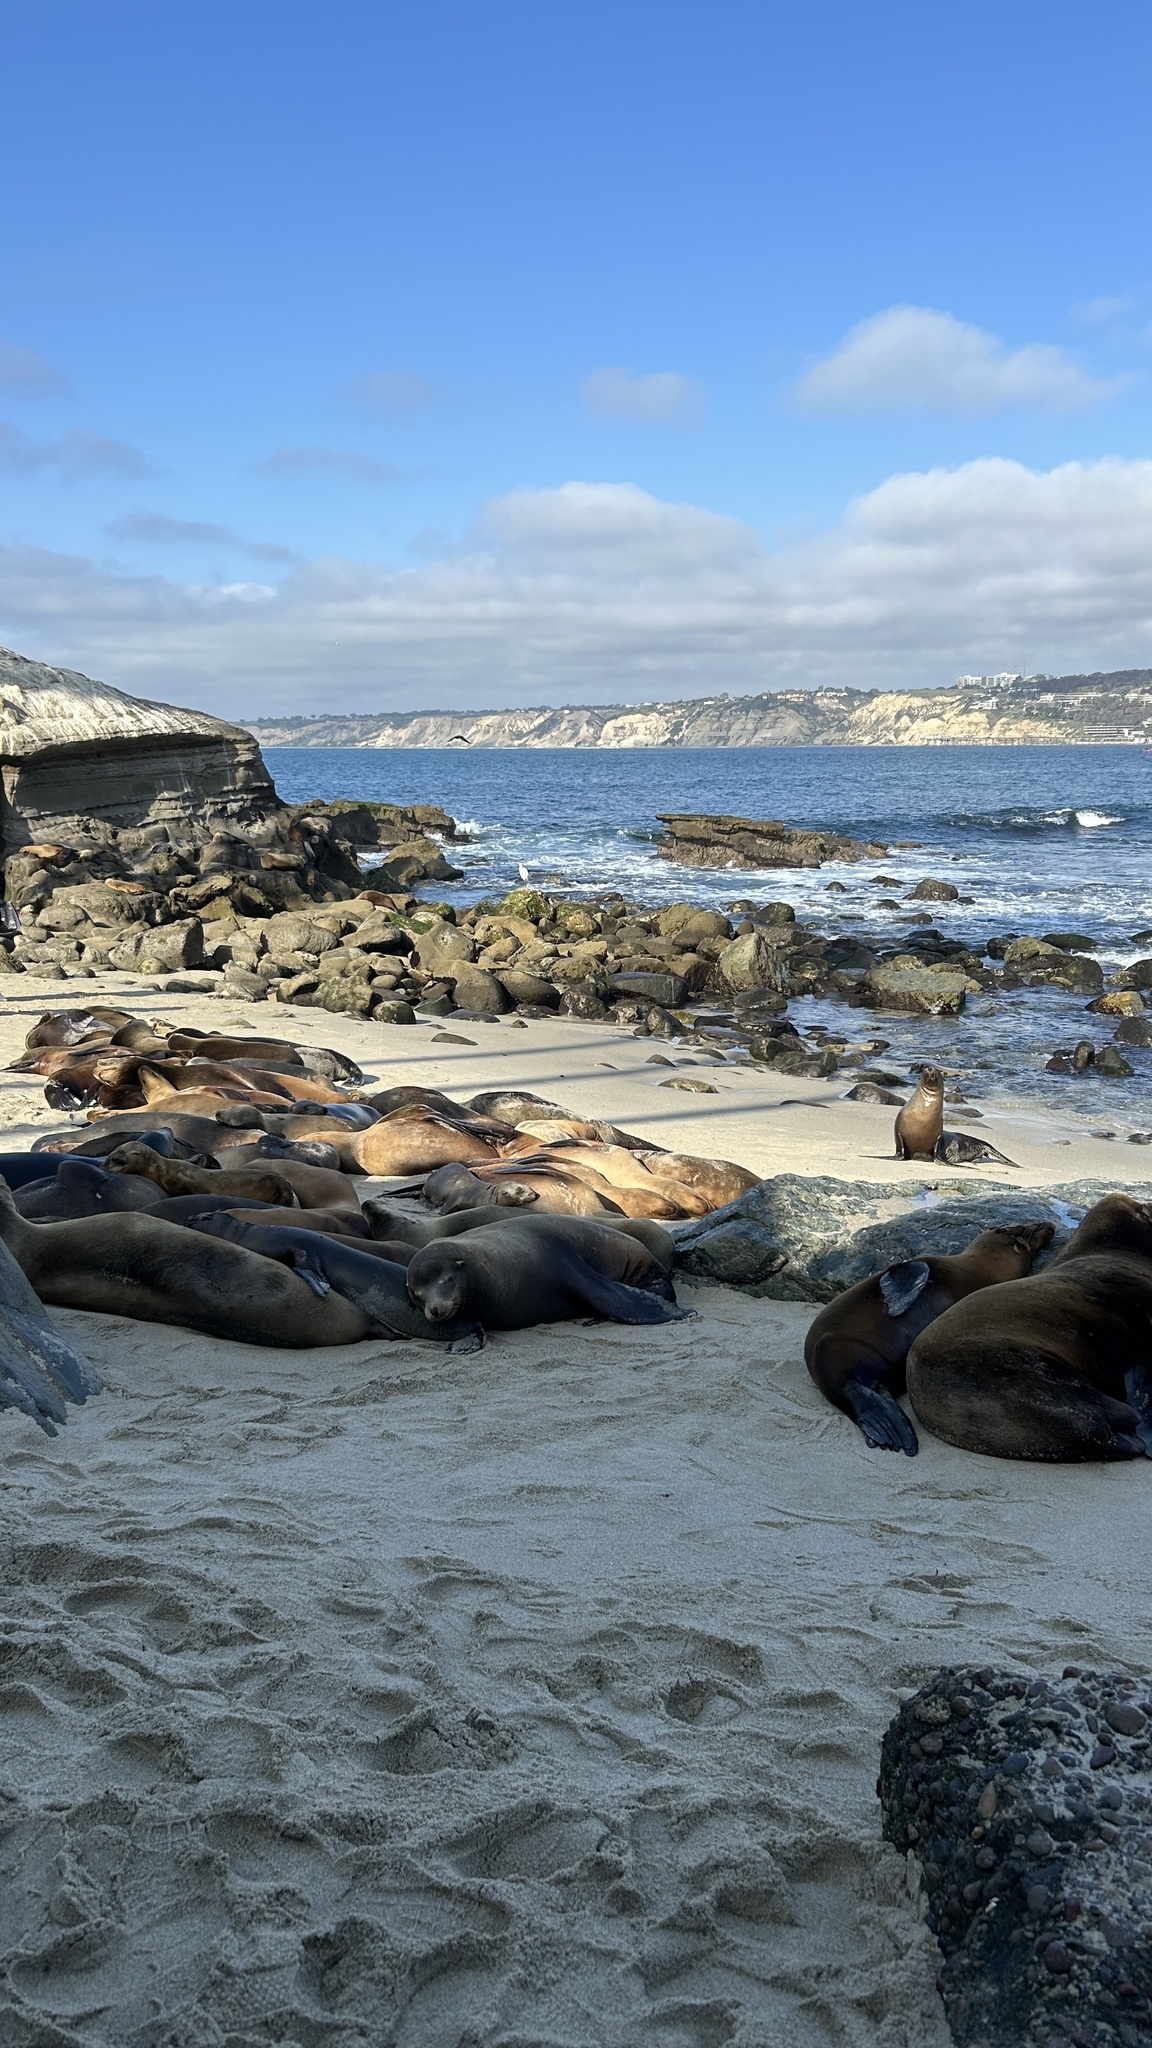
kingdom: Animalia
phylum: Chordata
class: Mammalia
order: Carnivora
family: Otariidae
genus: Zalophus
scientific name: Zalophus californianus
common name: California sea lion
